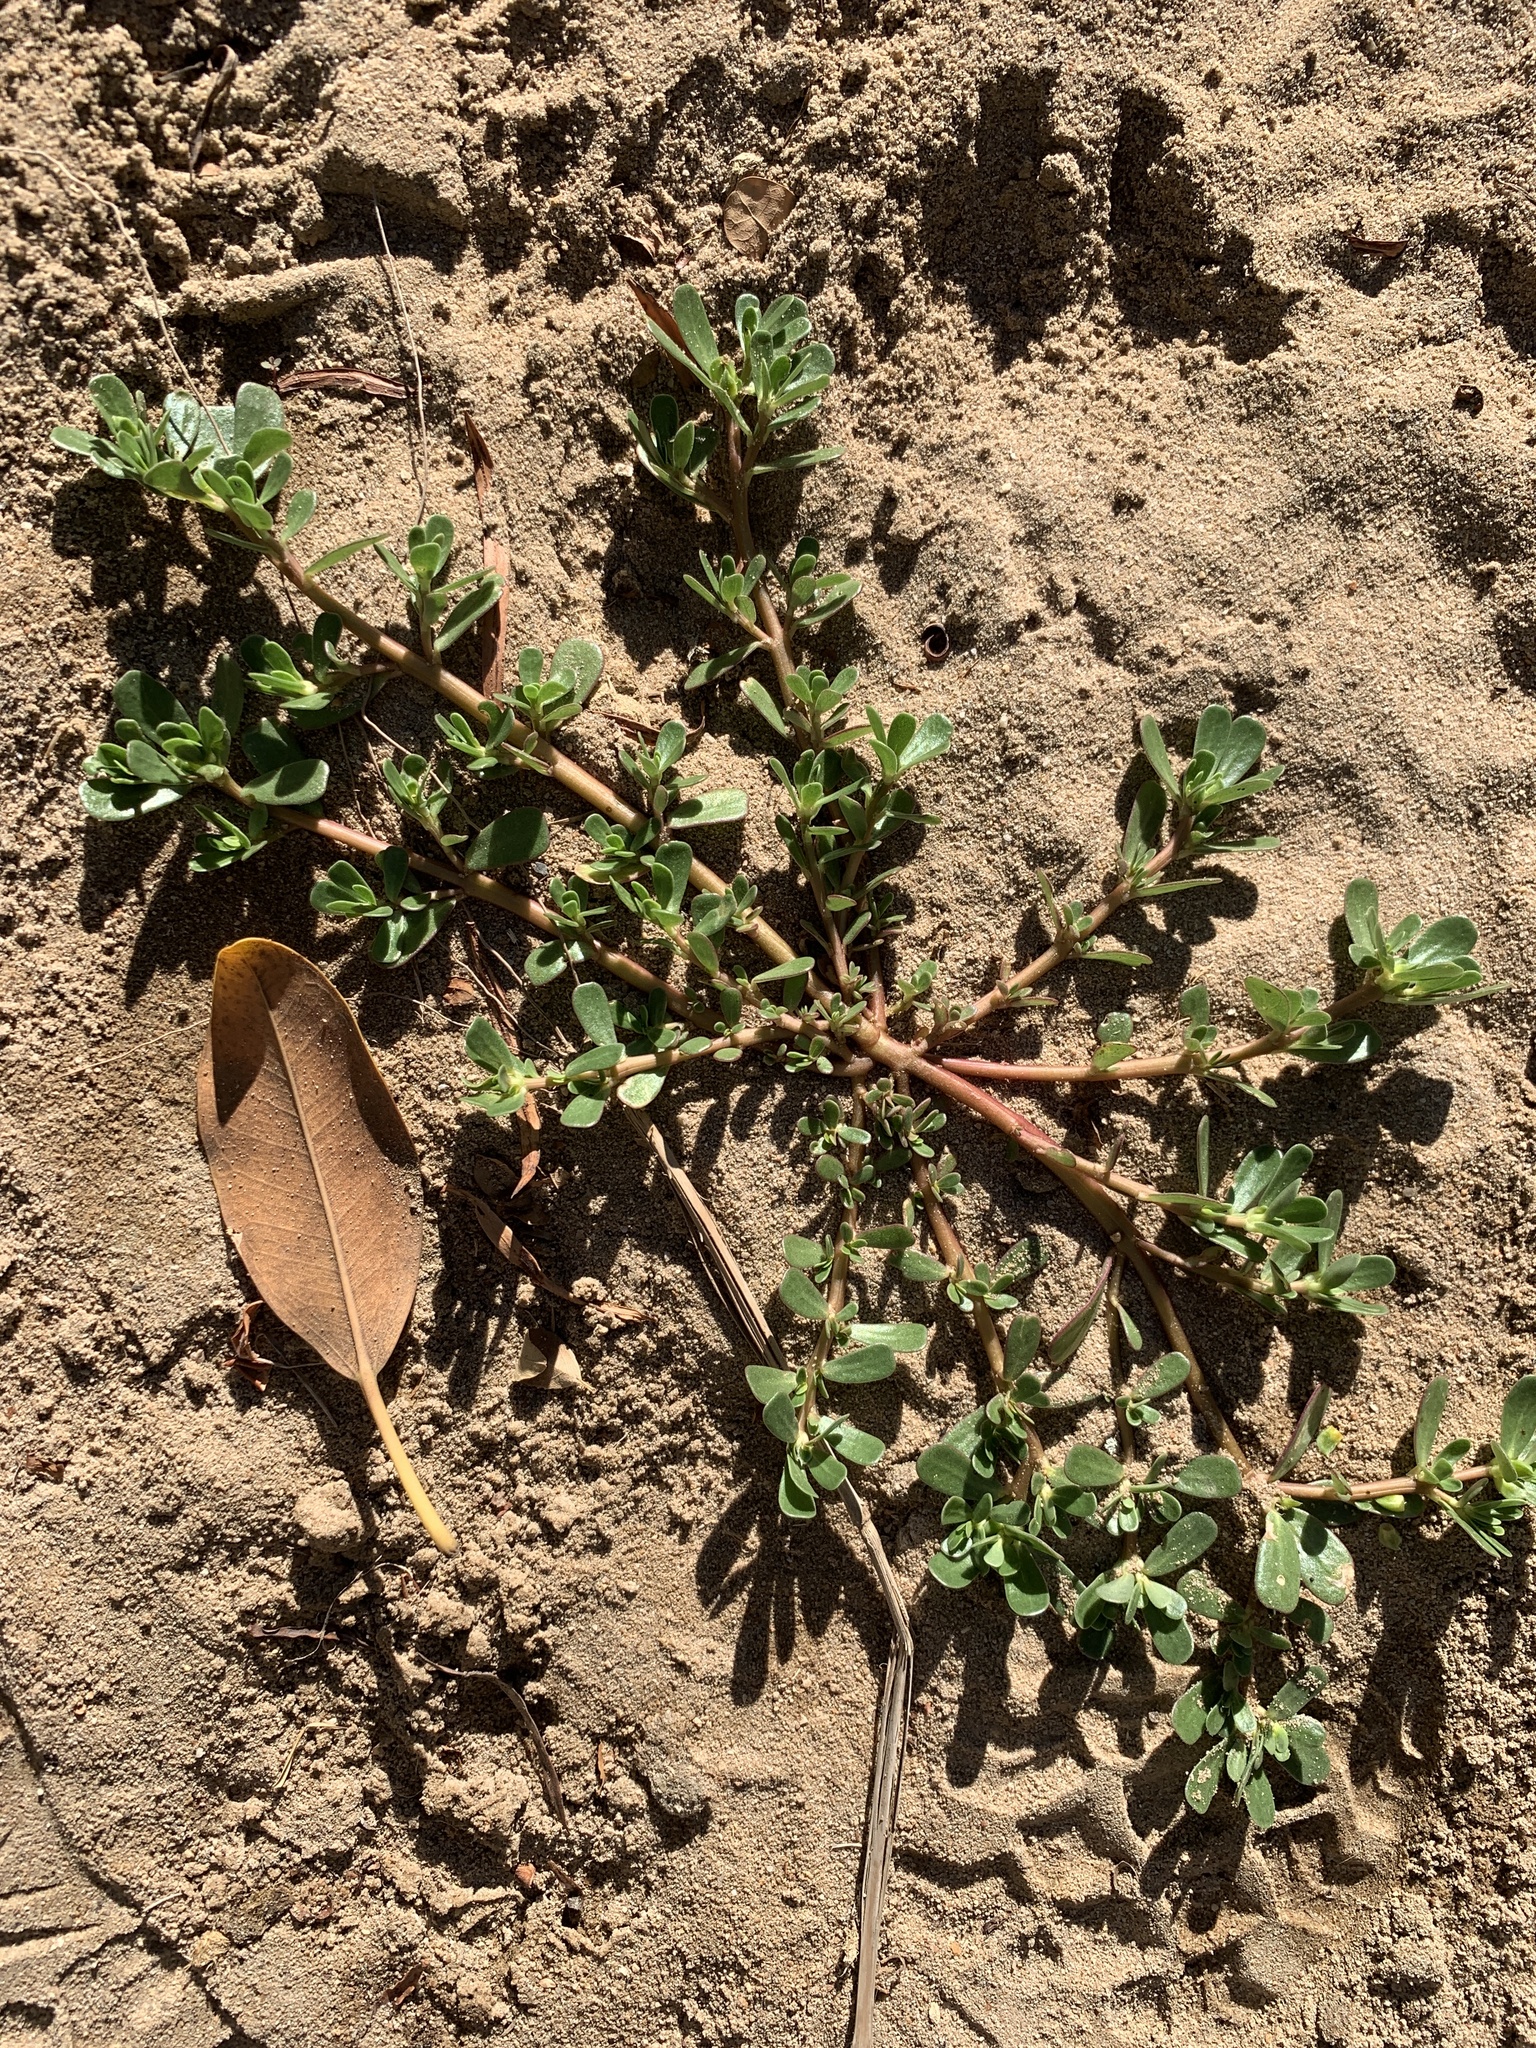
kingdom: Plantae
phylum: Tracheophyta
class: Magnoliopsida
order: Caryophyllales
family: Portulacaceae
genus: Portulaca
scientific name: Portulaca oleracea
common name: Common purslane
